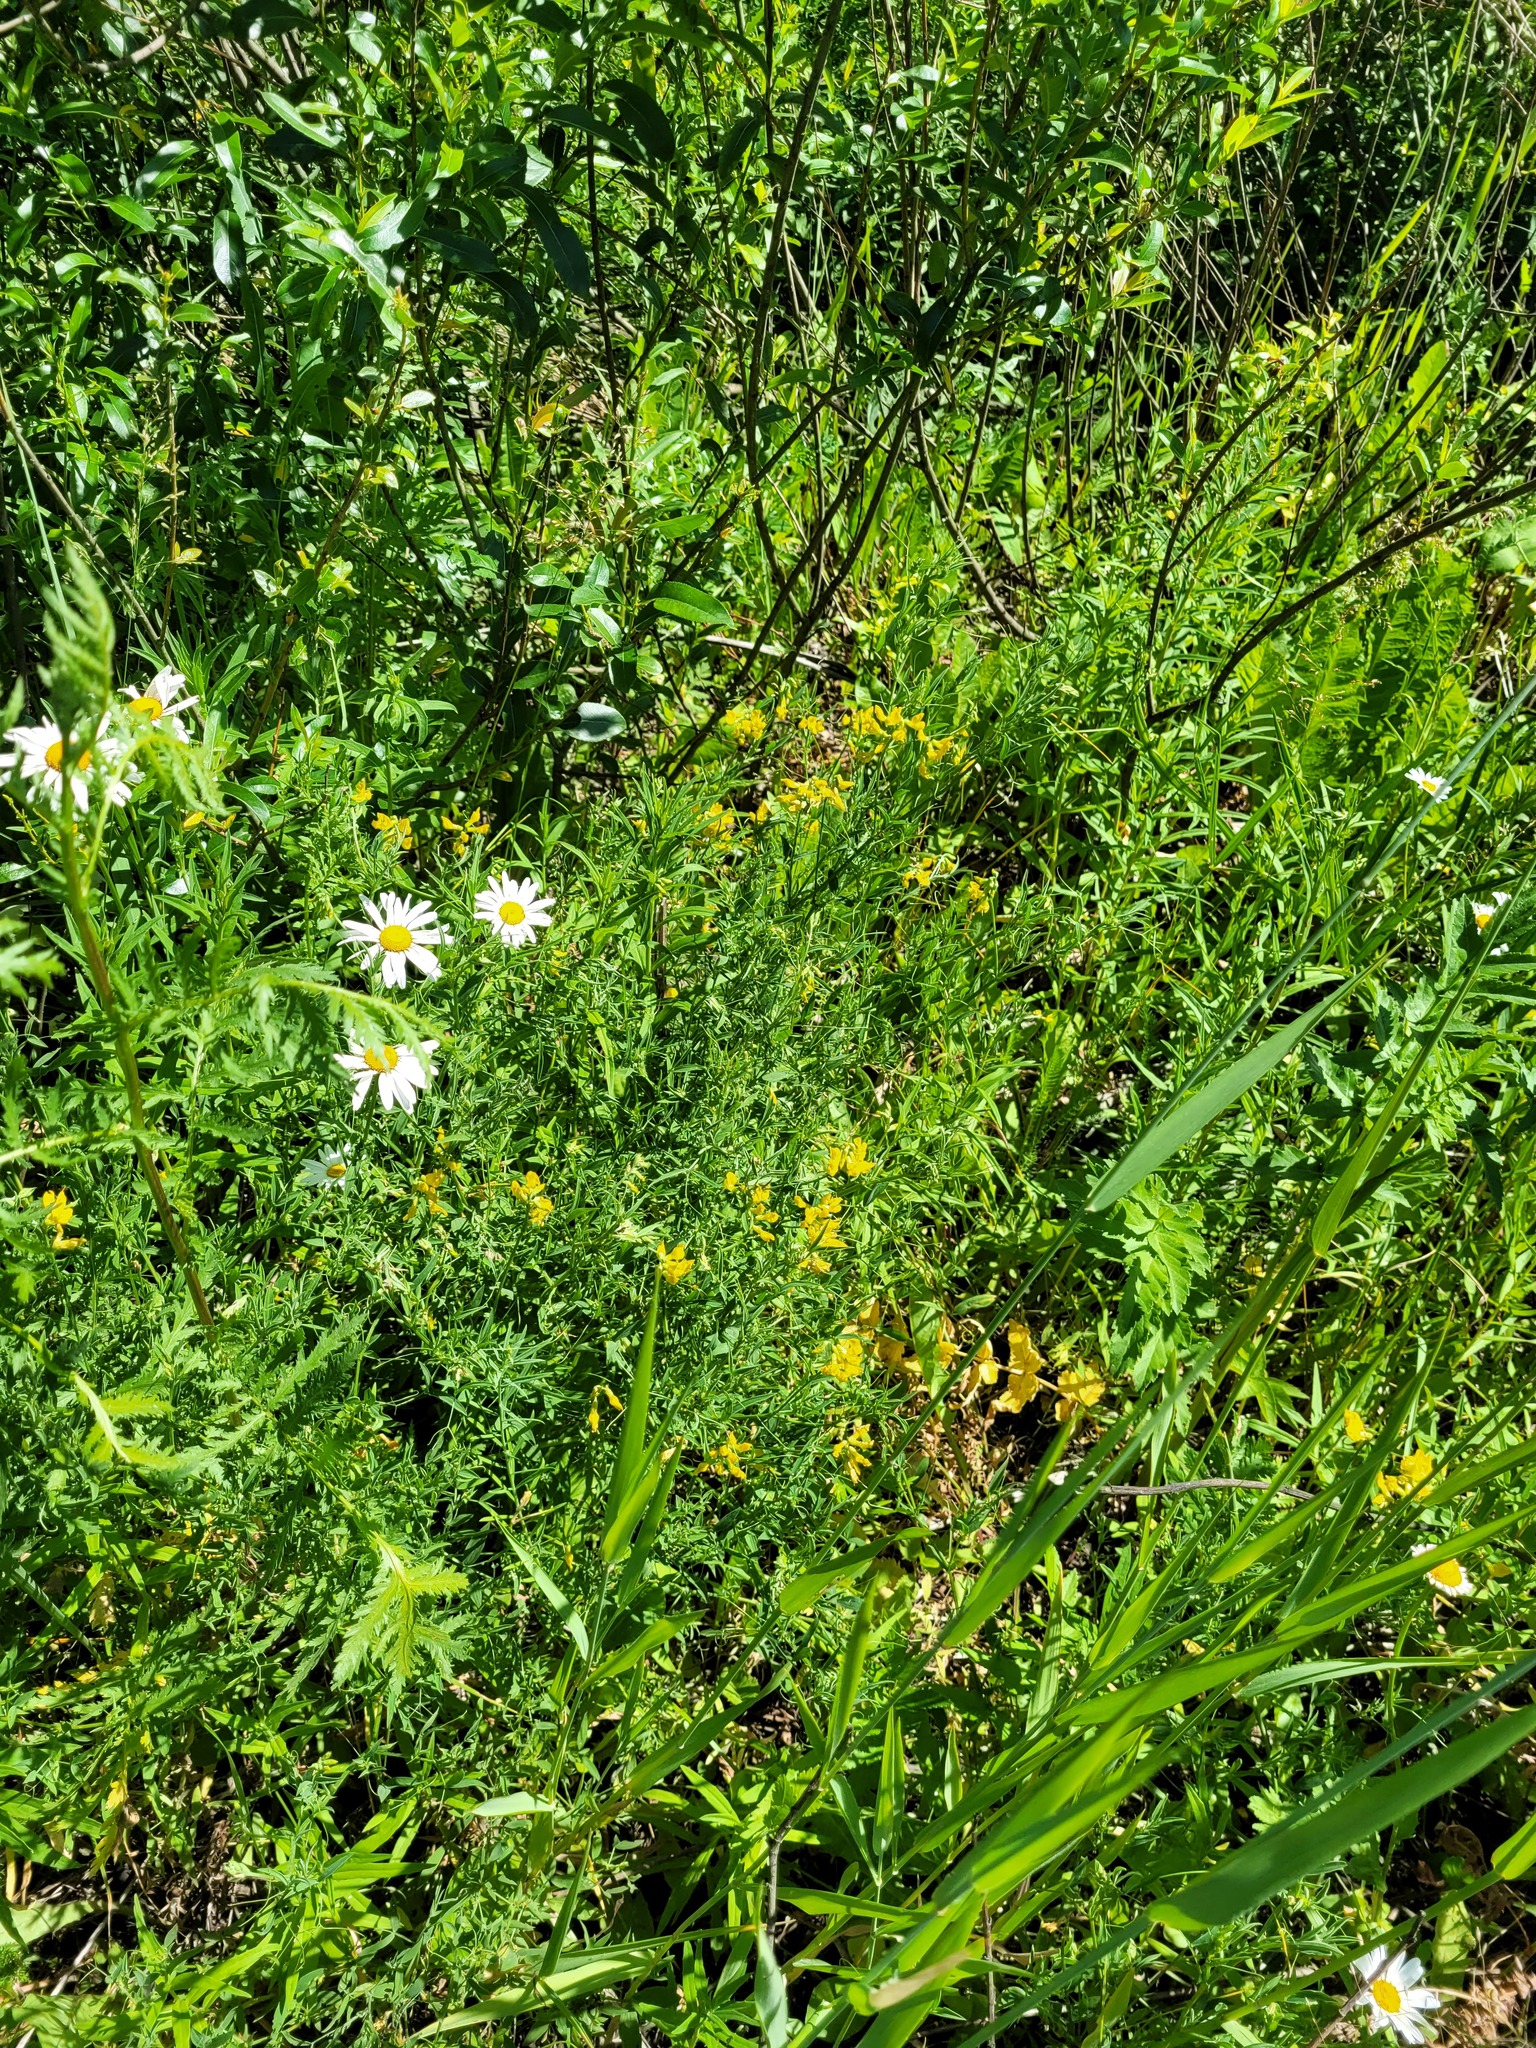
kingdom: Plantae
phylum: Tracheophyta
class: Magnoliopsida
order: Fabales
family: Fabaceae
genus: Lathyrus
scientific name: Lathyrus pratensis
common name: Meadow vetchling
